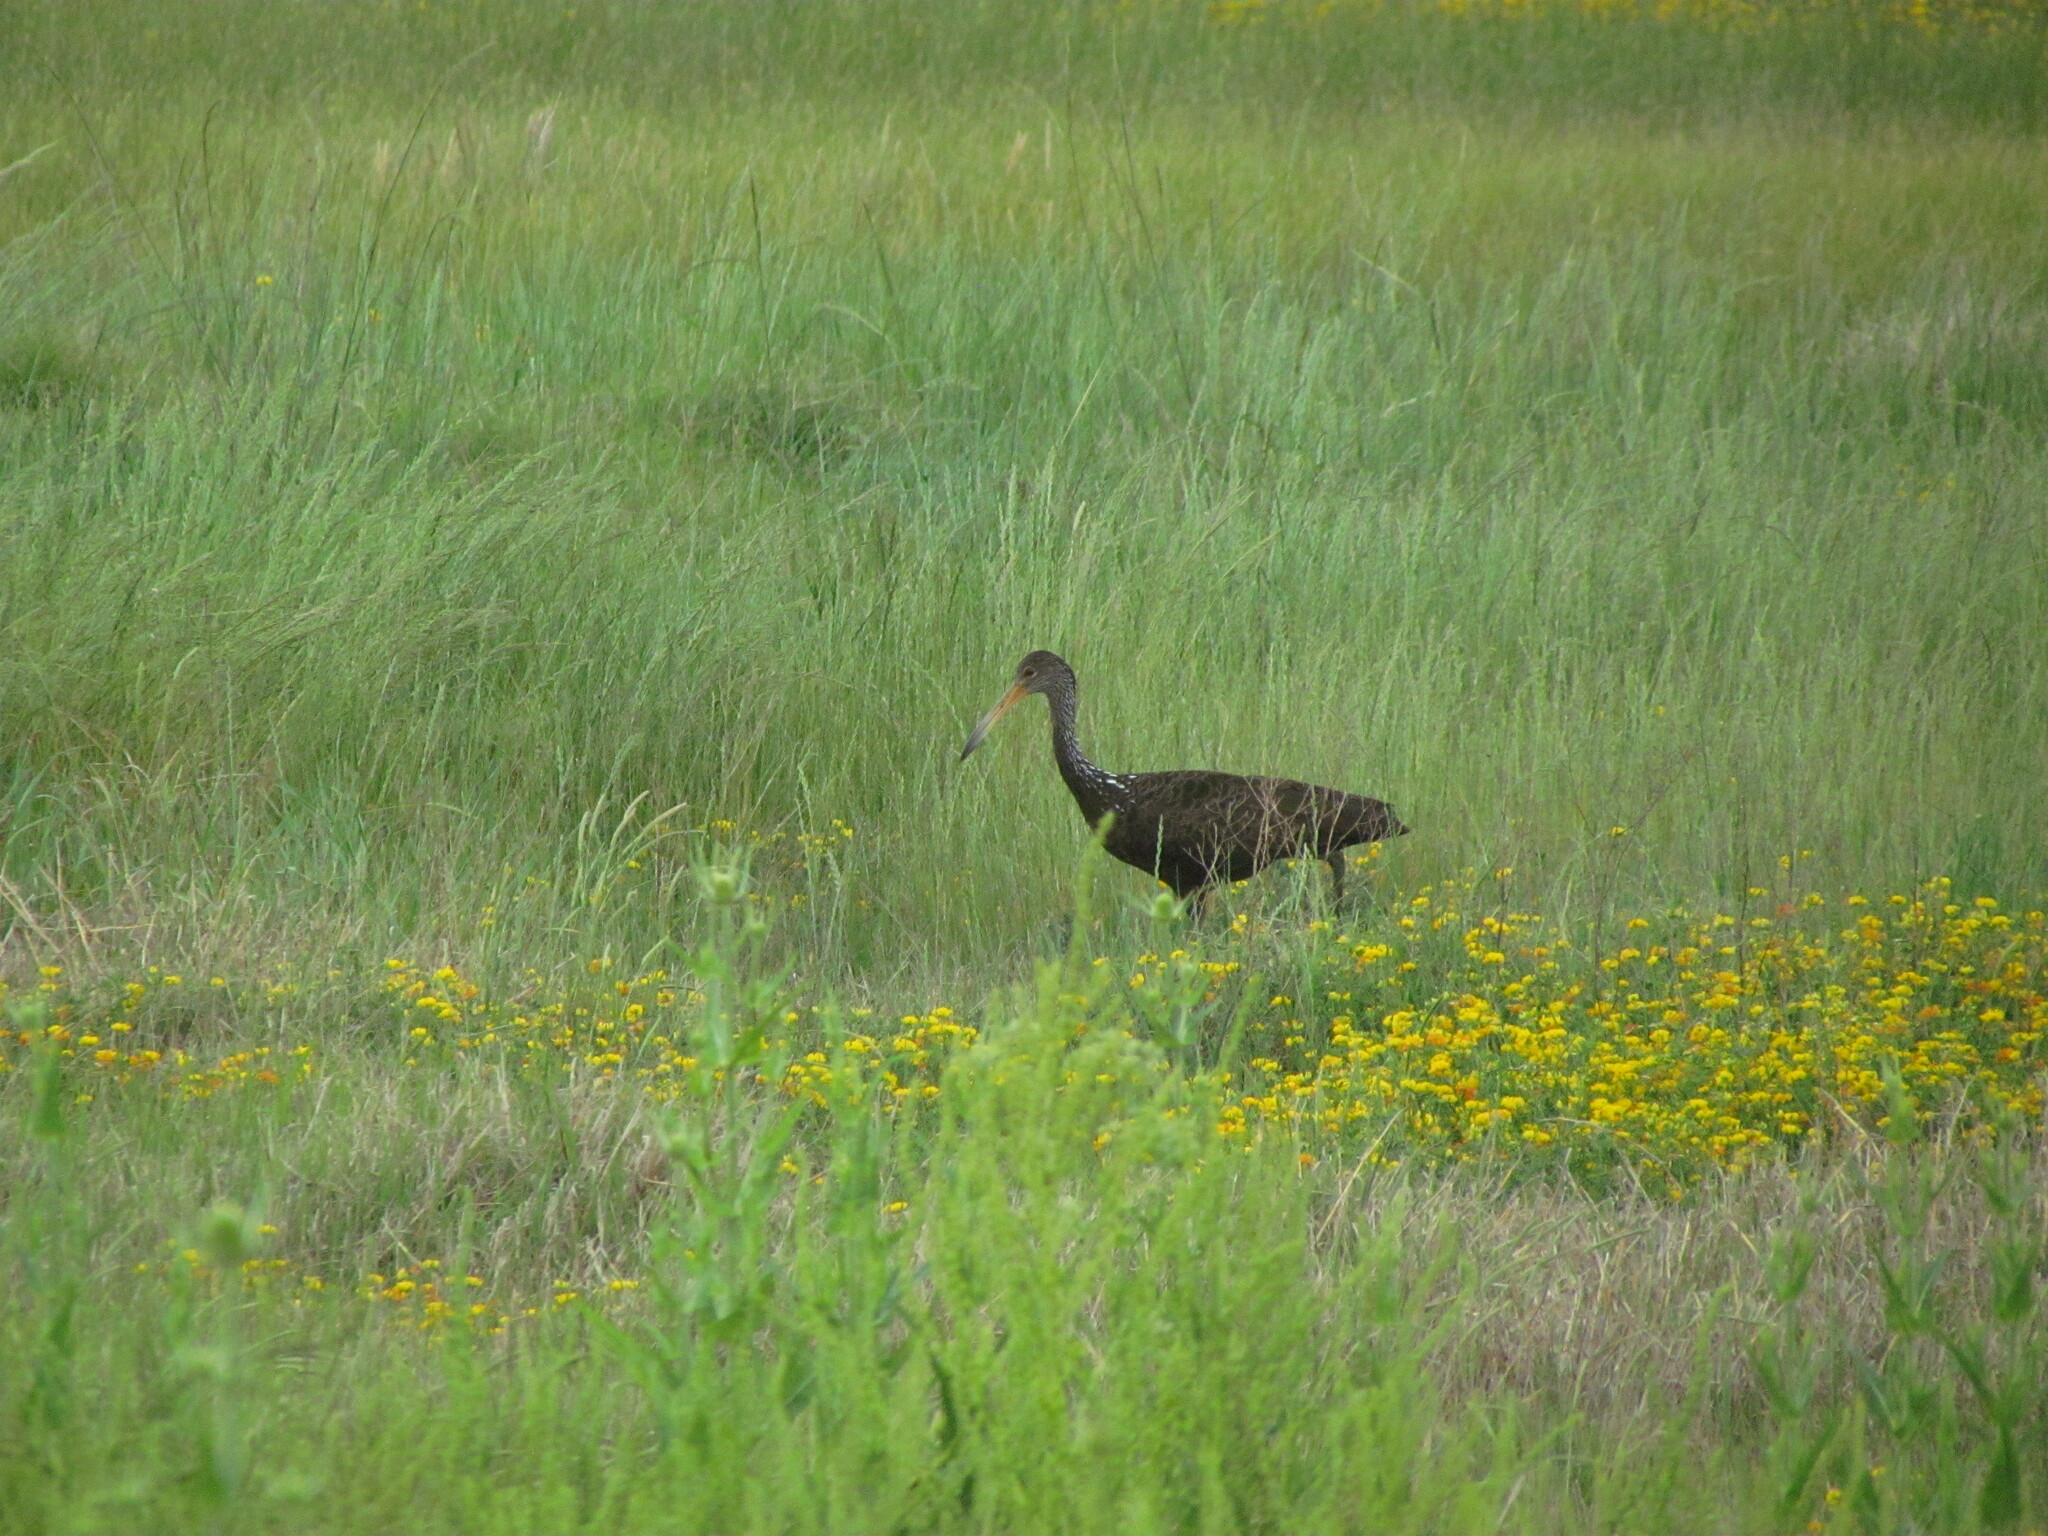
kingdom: Animalia
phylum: Chordata
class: Aves
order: Gruiformes
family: Aramidae
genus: Aramus
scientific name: Aramus guarauna
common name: Limpkin
